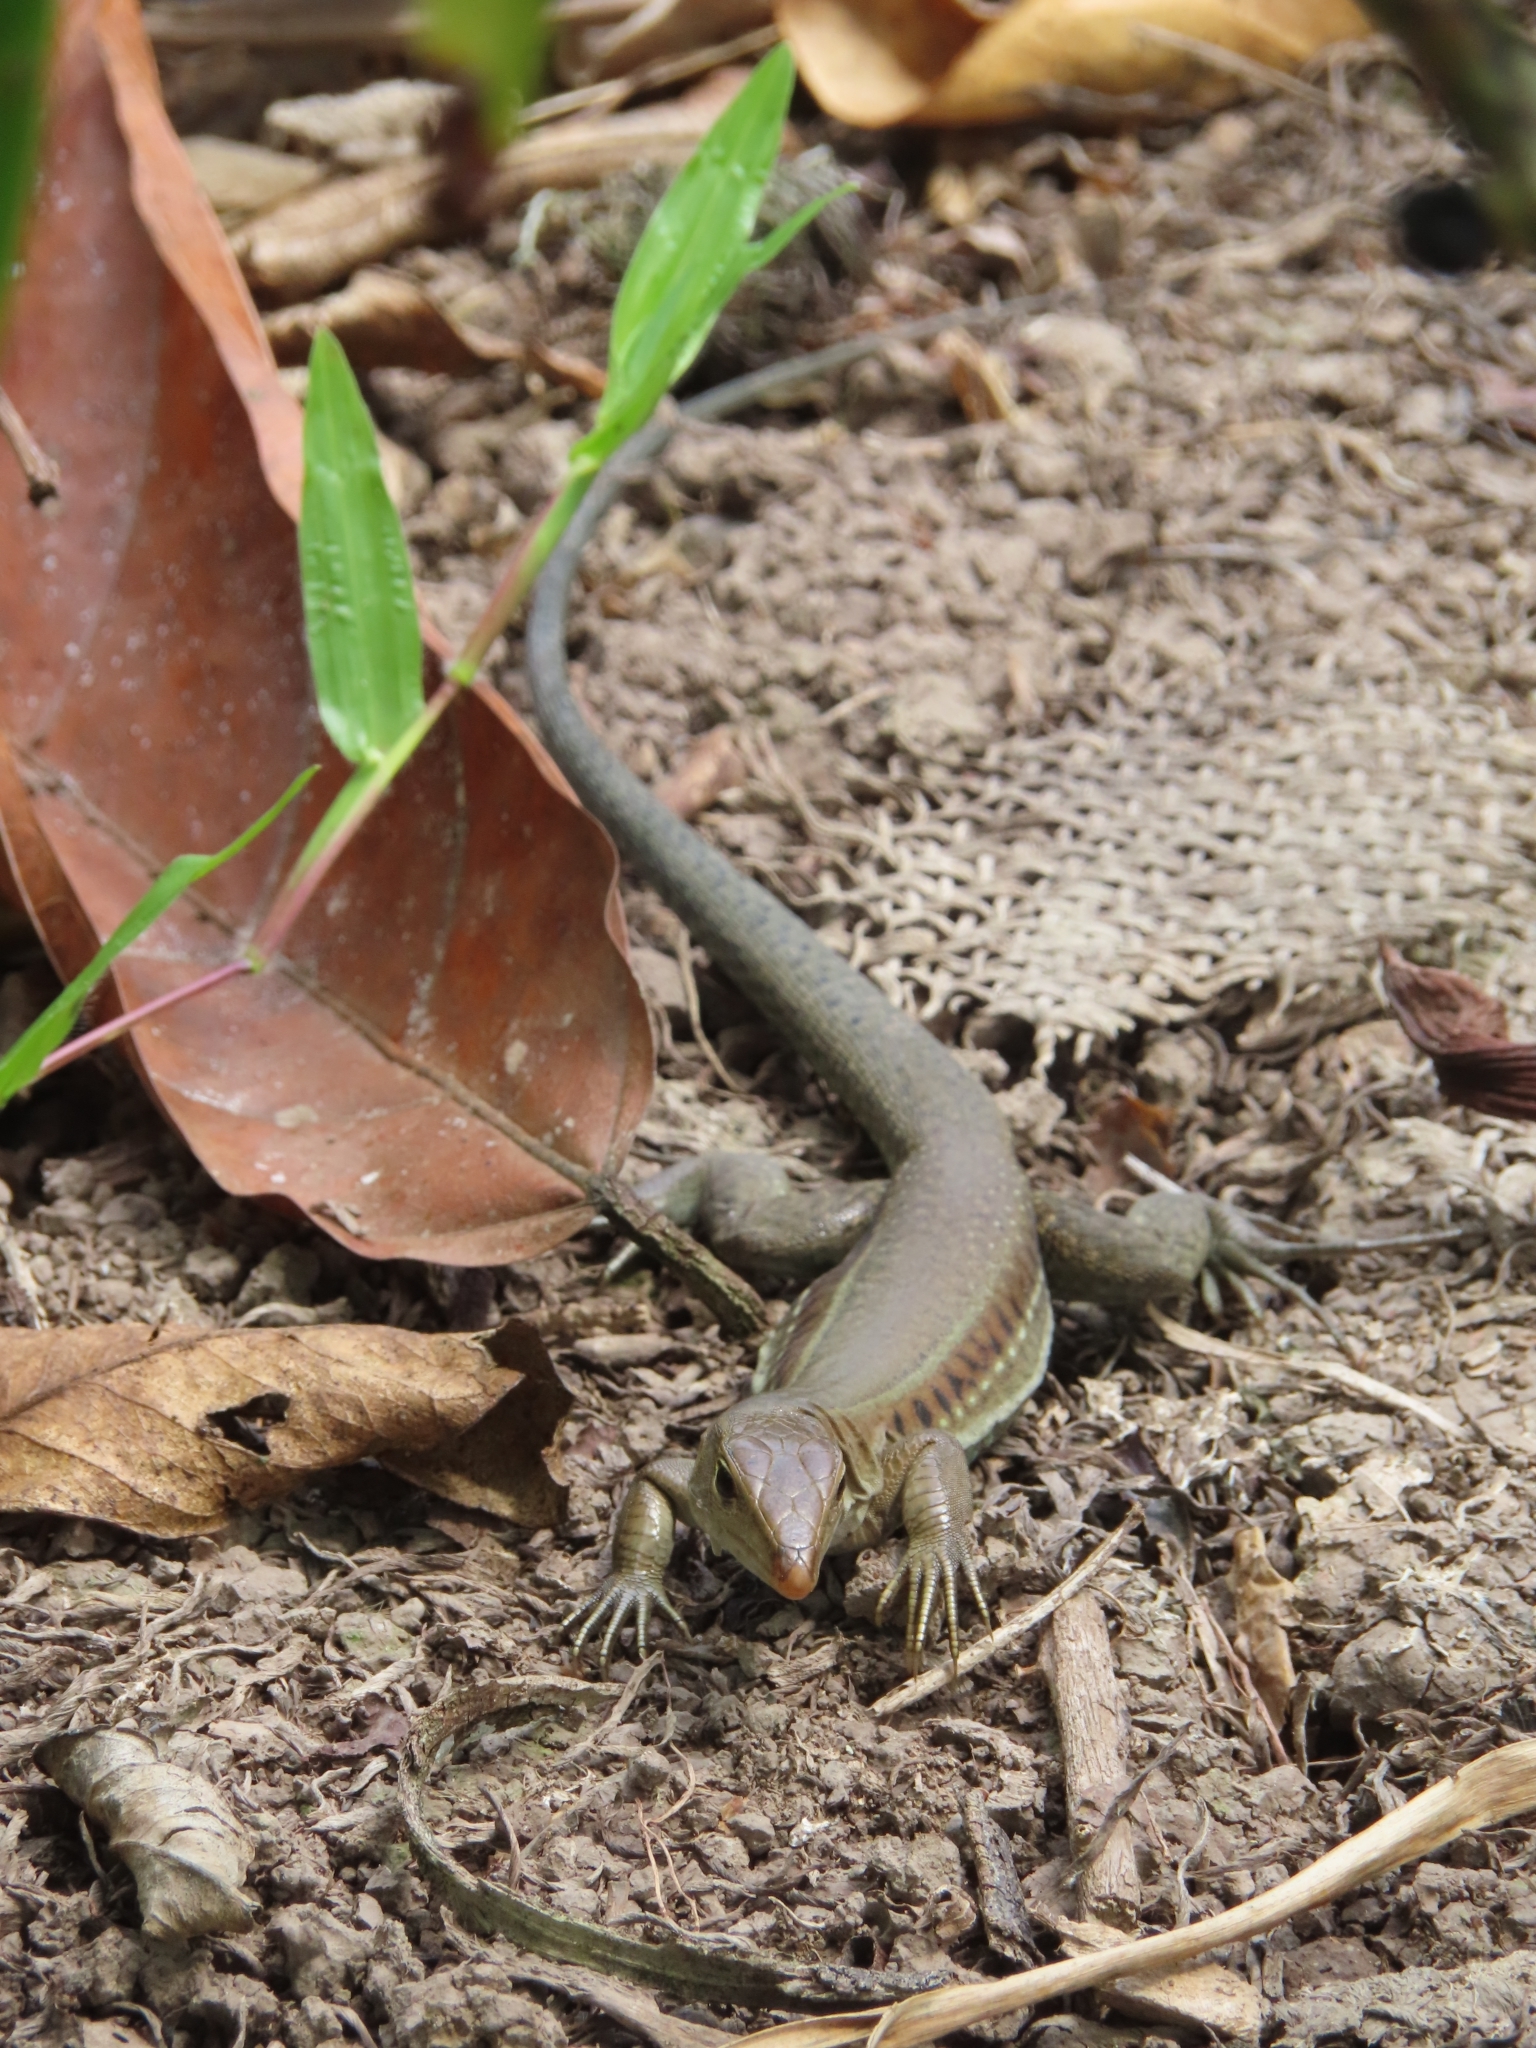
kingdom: Animalia
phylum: Chordata
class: Squamata
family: Teiidae
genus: Pholidoscelis
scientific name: Pholidoscelis exsul
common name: Common puerto rican ameiva
